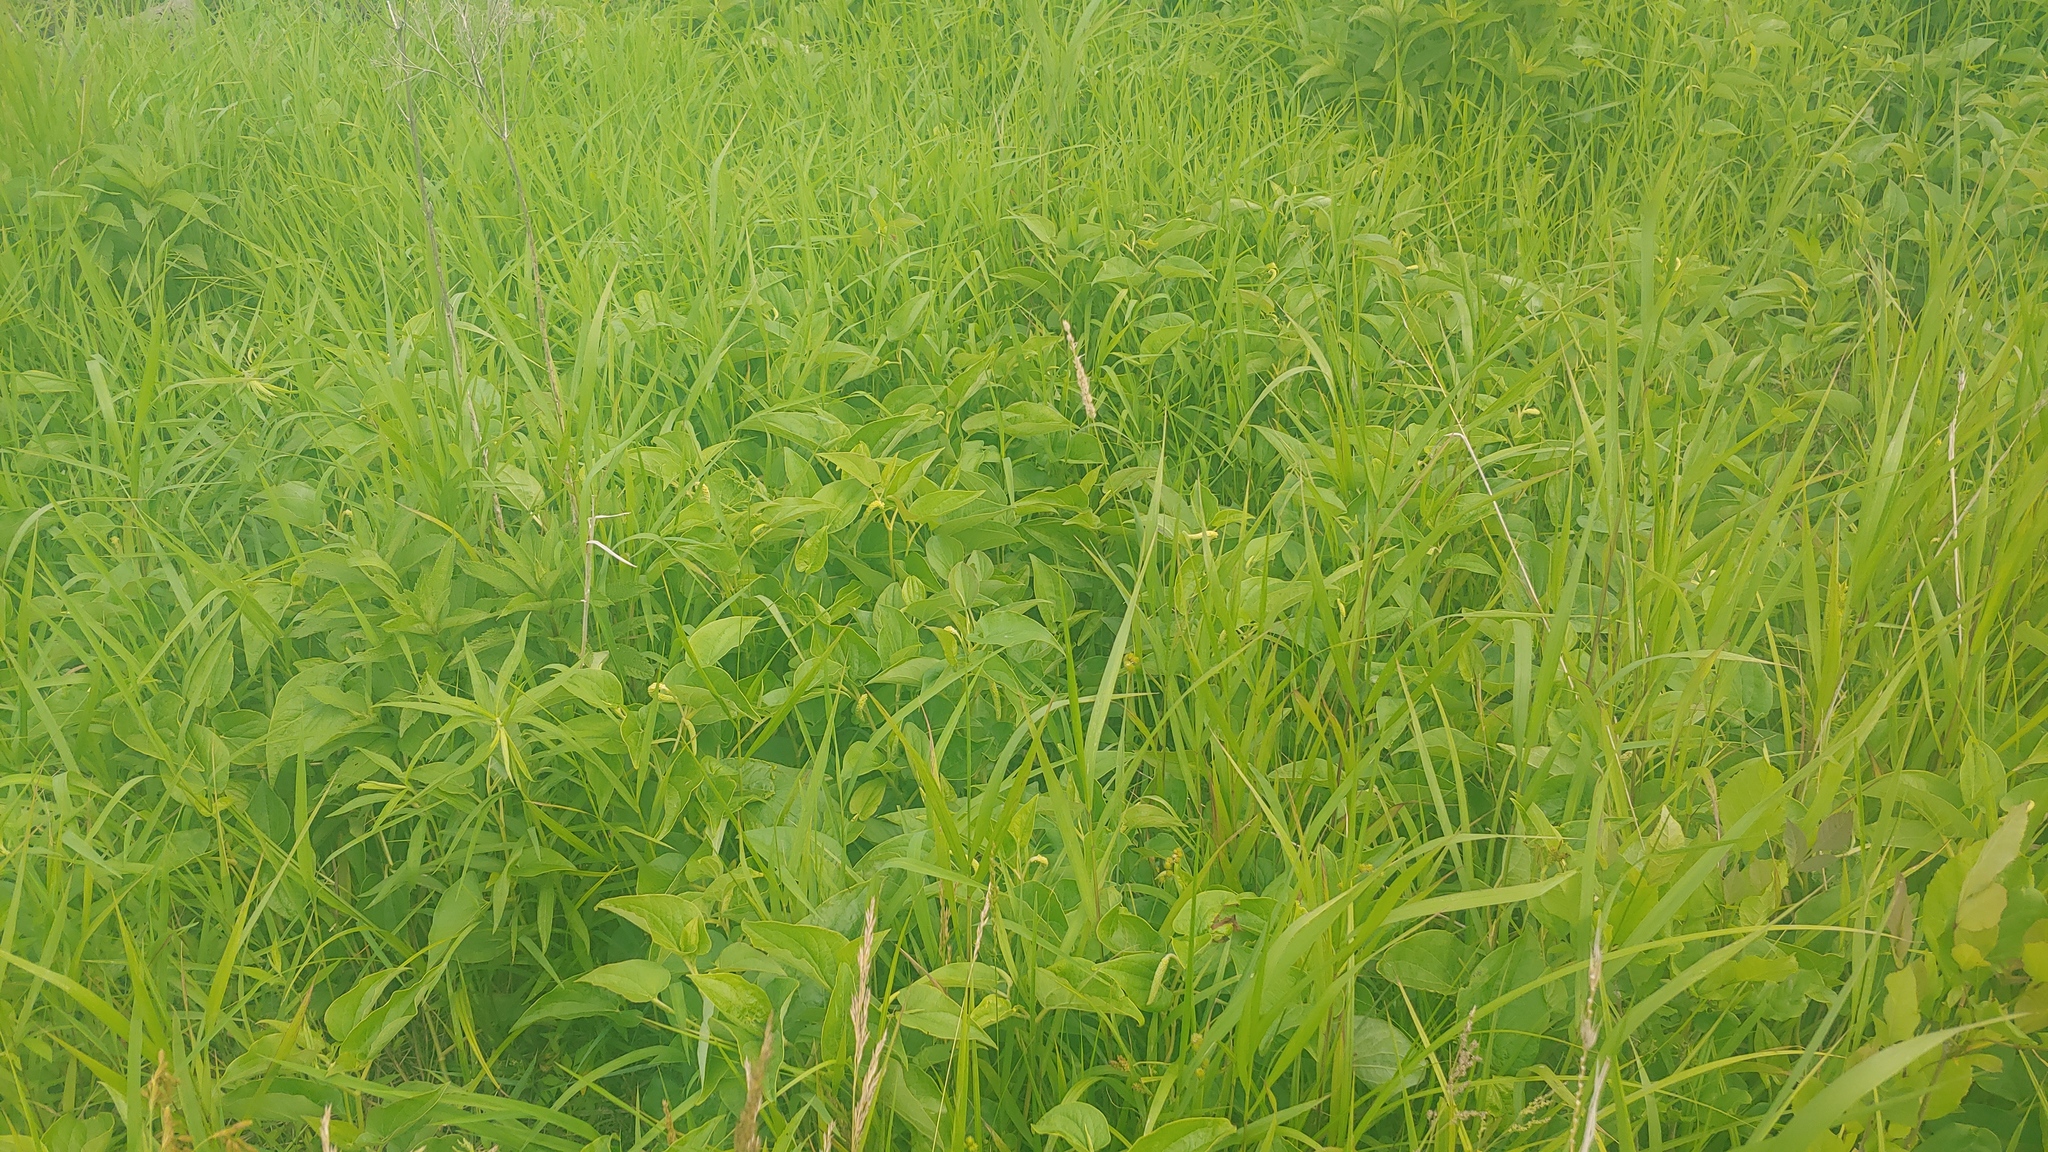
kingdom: Plantae
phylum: Tracheophyta
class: Magnoliopsida
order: Piperales
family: Saururaceae
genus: Saururus
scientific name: Saururus cernuus
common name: Lizard's-tail
